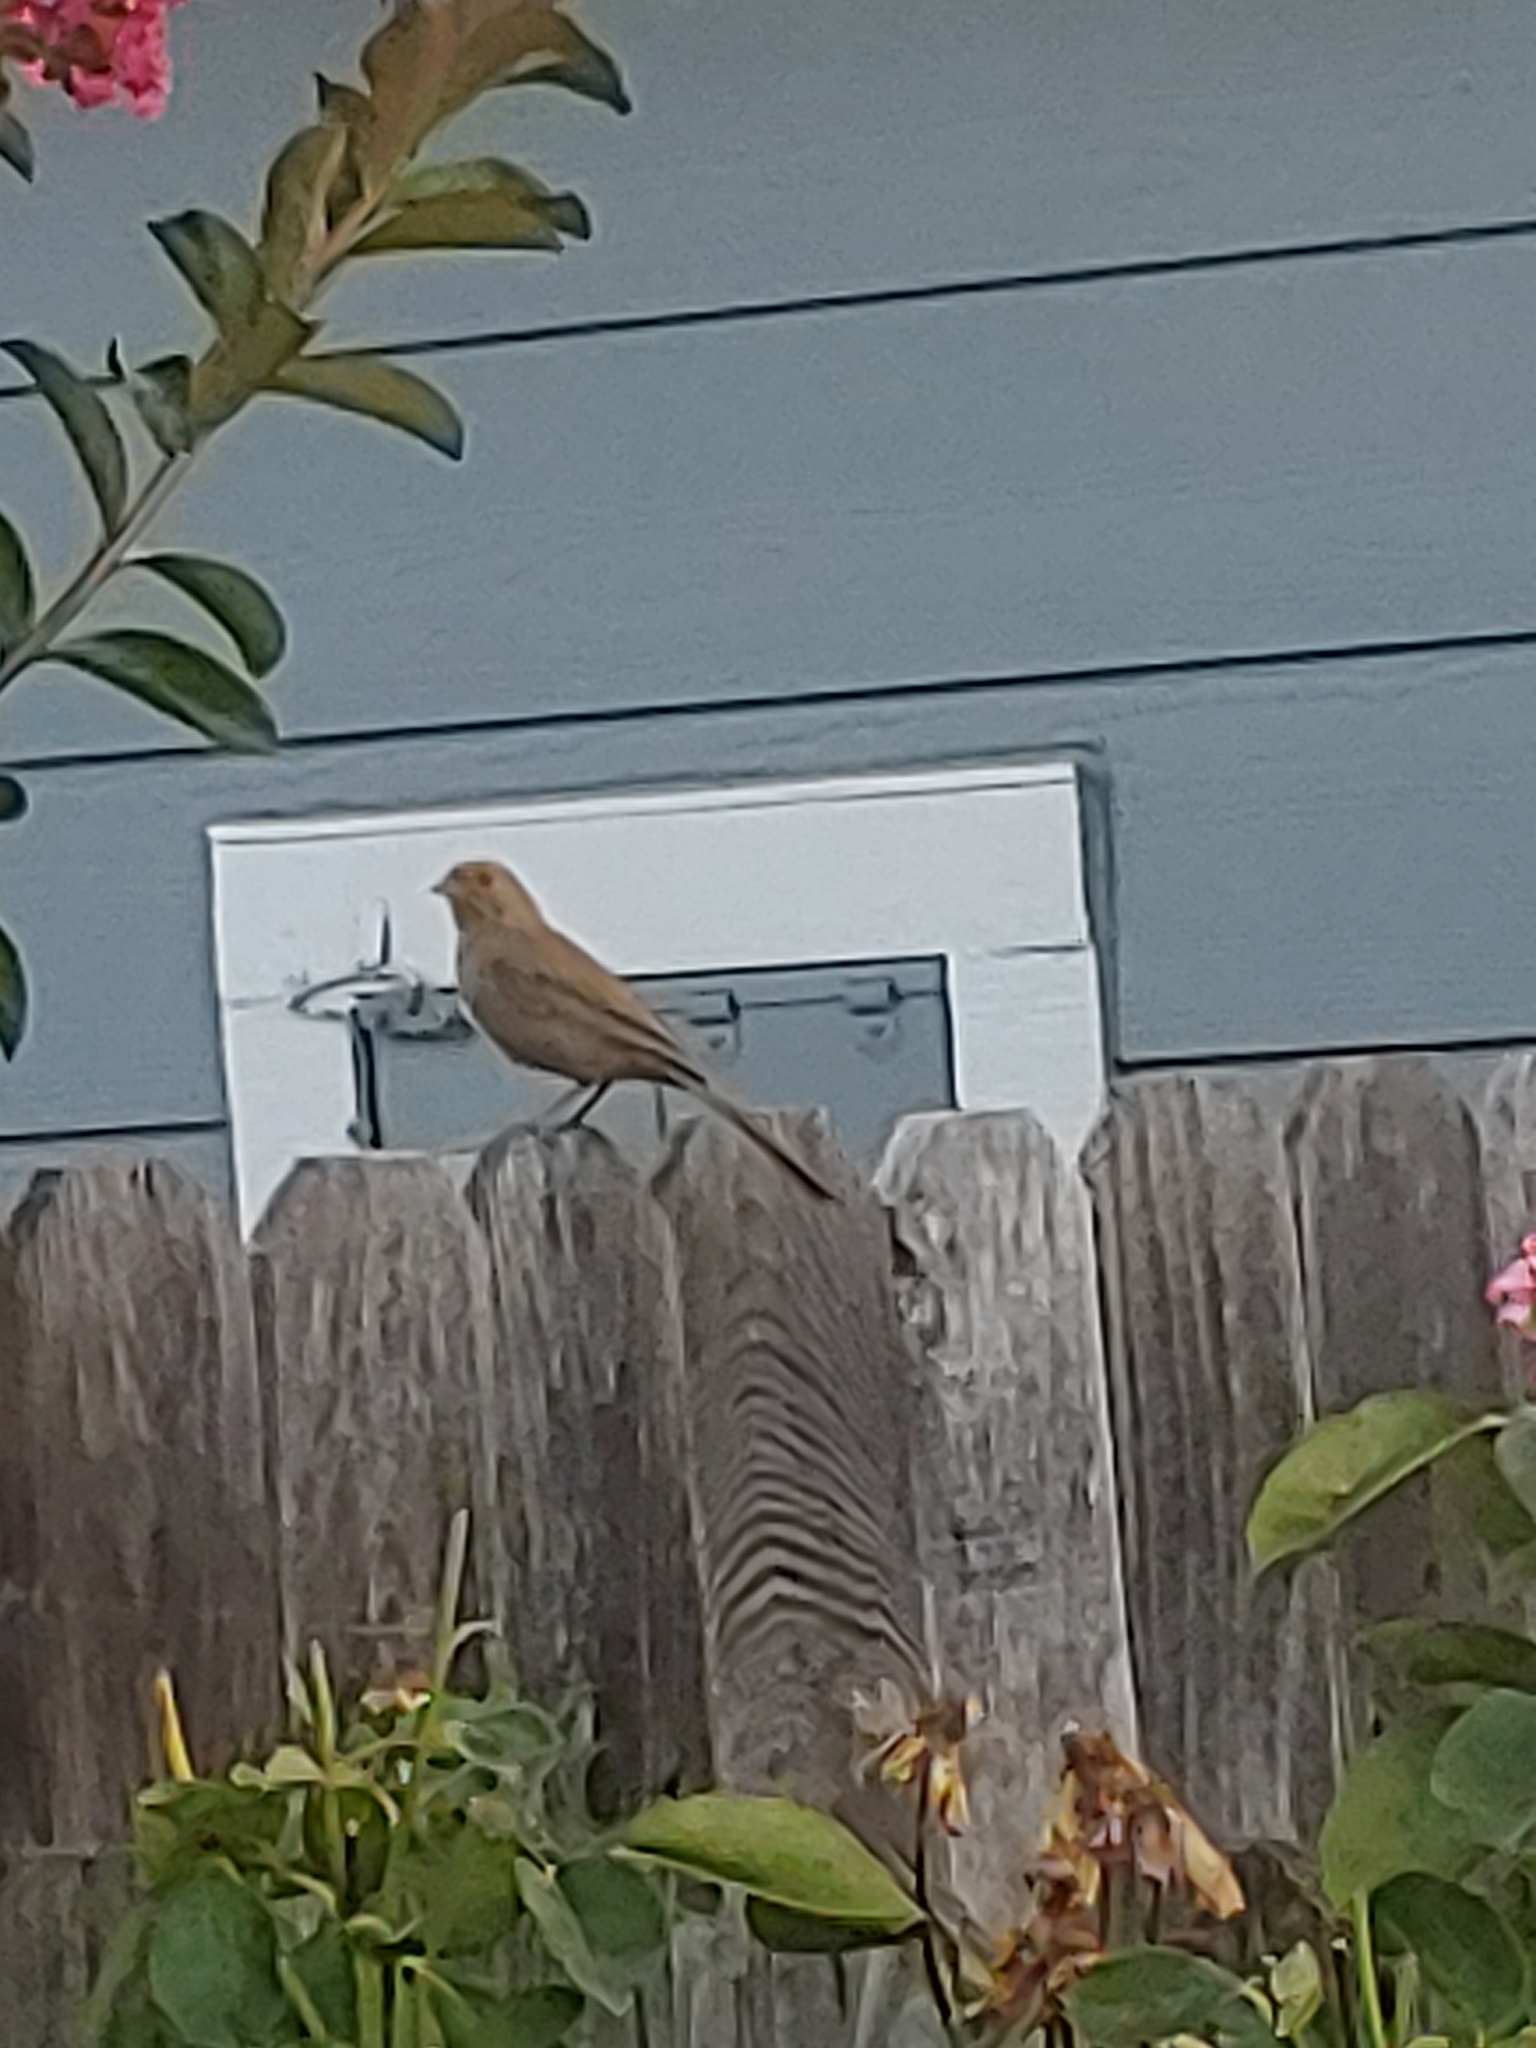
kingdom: Animalia
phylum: Chordata
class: Aves
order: Passeriformes
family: Passerellidae
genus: Melozone
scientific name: Melozone crissalis
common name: California towhee
